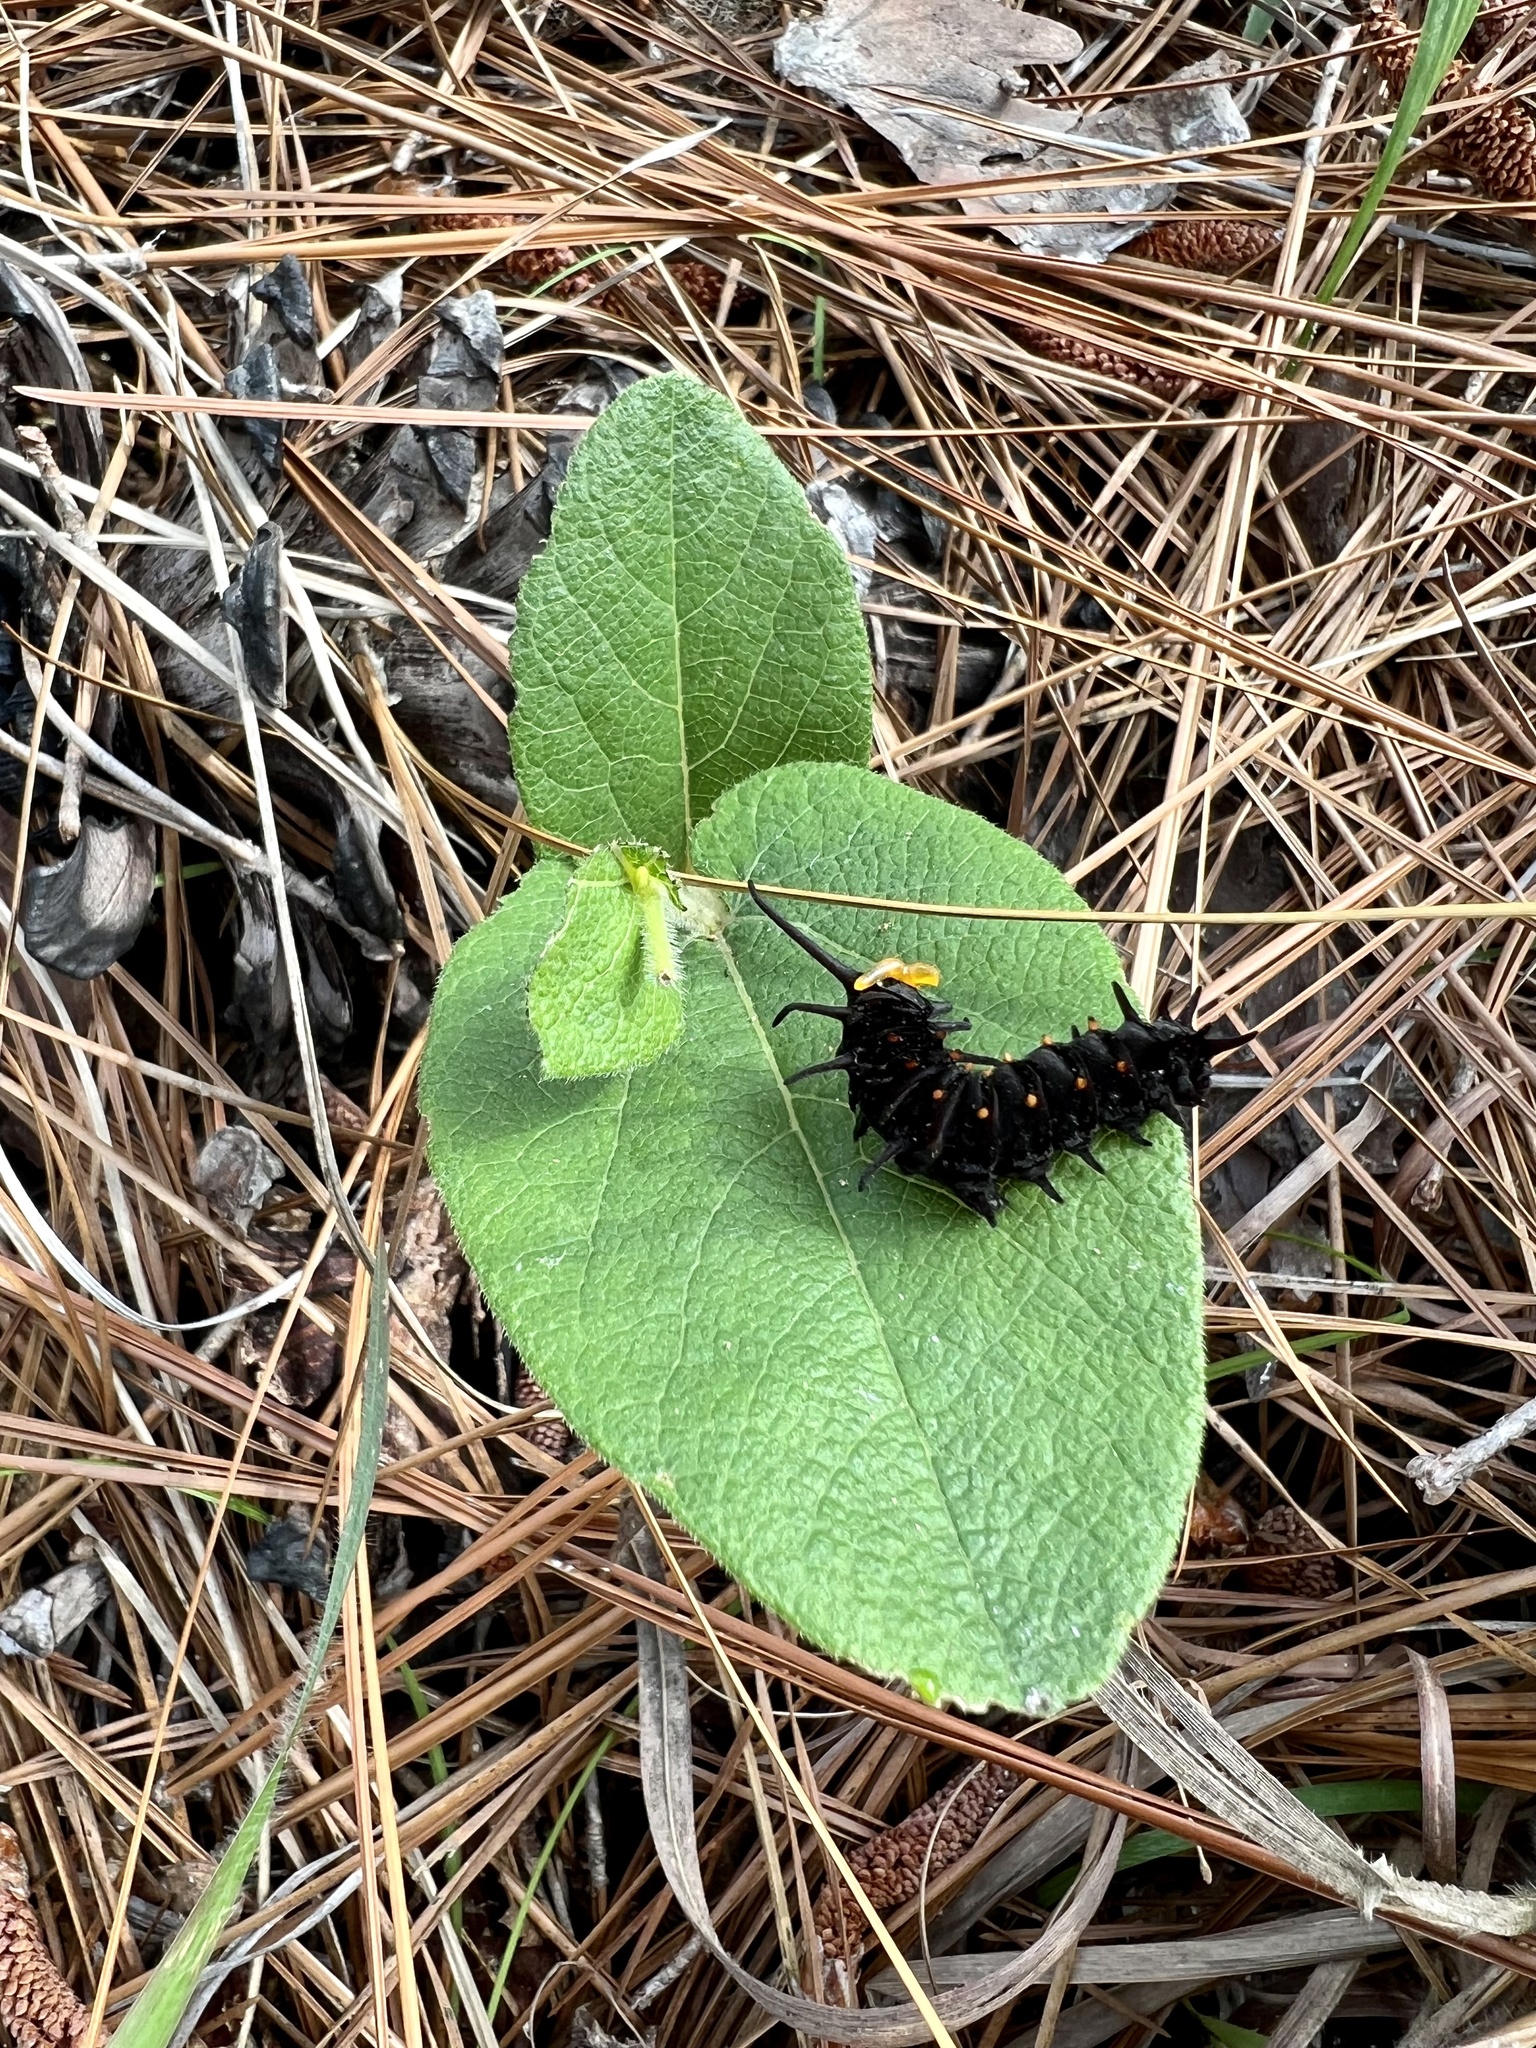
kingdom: Plantae
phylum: Tracheophyta
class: Magnoliopsida
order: Piperales
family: Aristolochiaceae
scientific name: Aristolochiaceae
